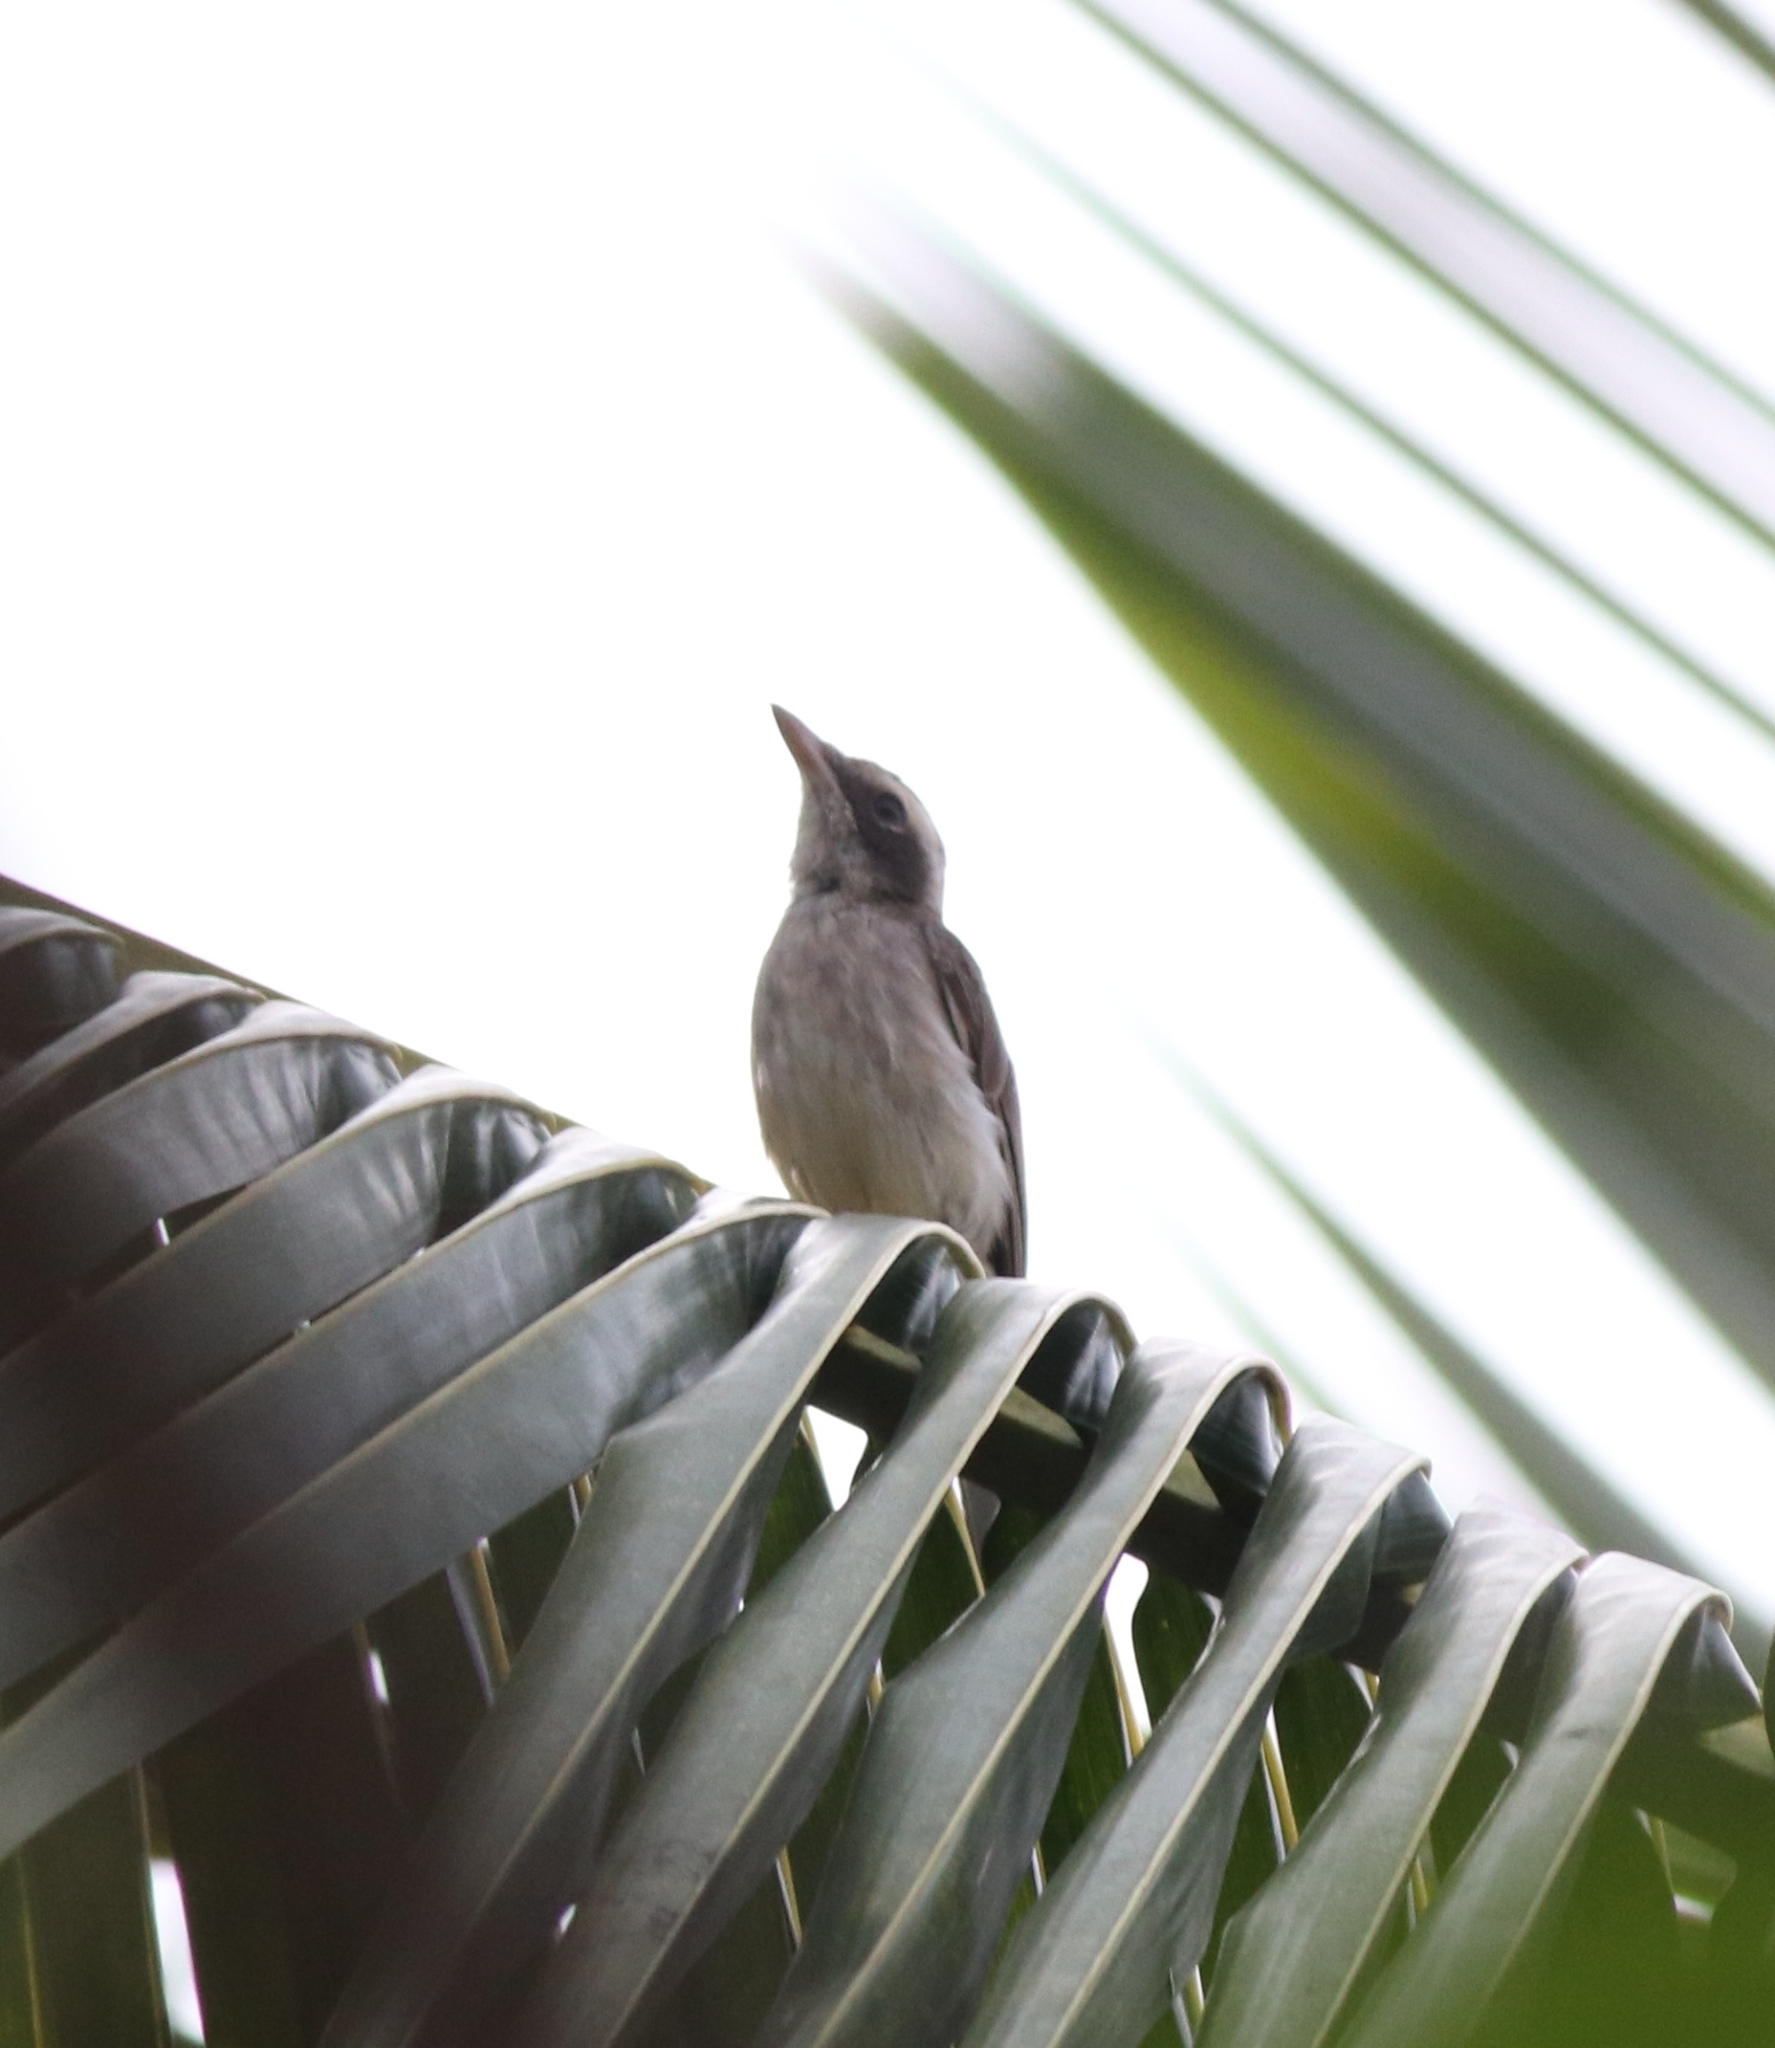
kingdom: Animalia
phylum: Chordata
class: Aves
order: Passeriformes
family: Tephrodornithidae
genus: Tephrodornis
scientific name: Tephrodornis pondicerianus
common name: Common woodshrike
